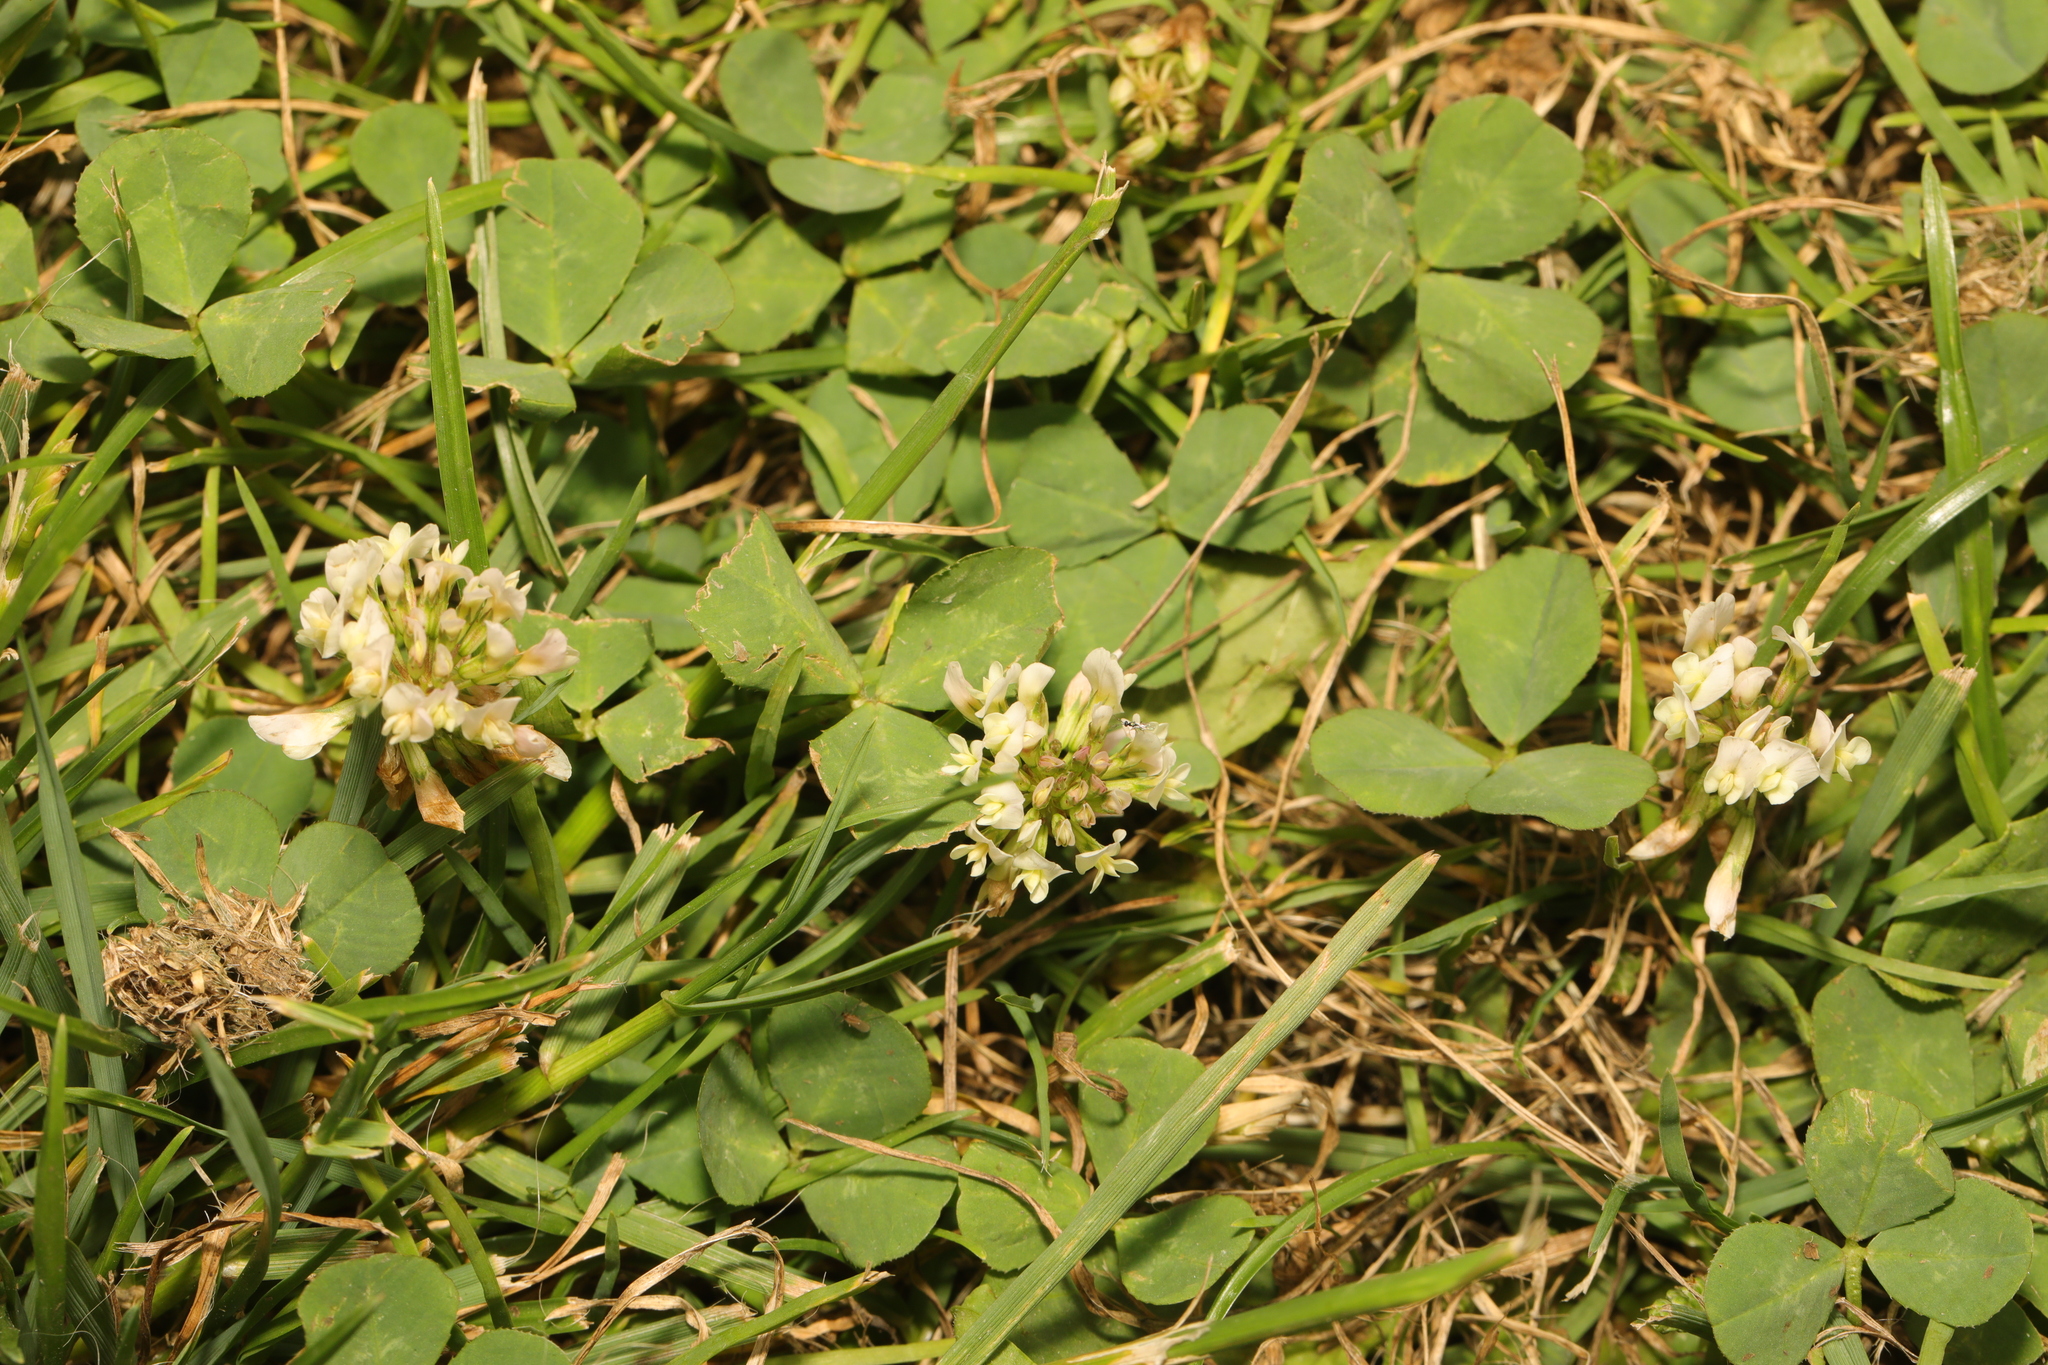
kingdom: Plantae
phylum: Tracheophyta
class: Magnoliopsida
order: Fabales
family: Fabaceae
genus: Trifolium
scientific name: Trifolium repens
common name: White clover
